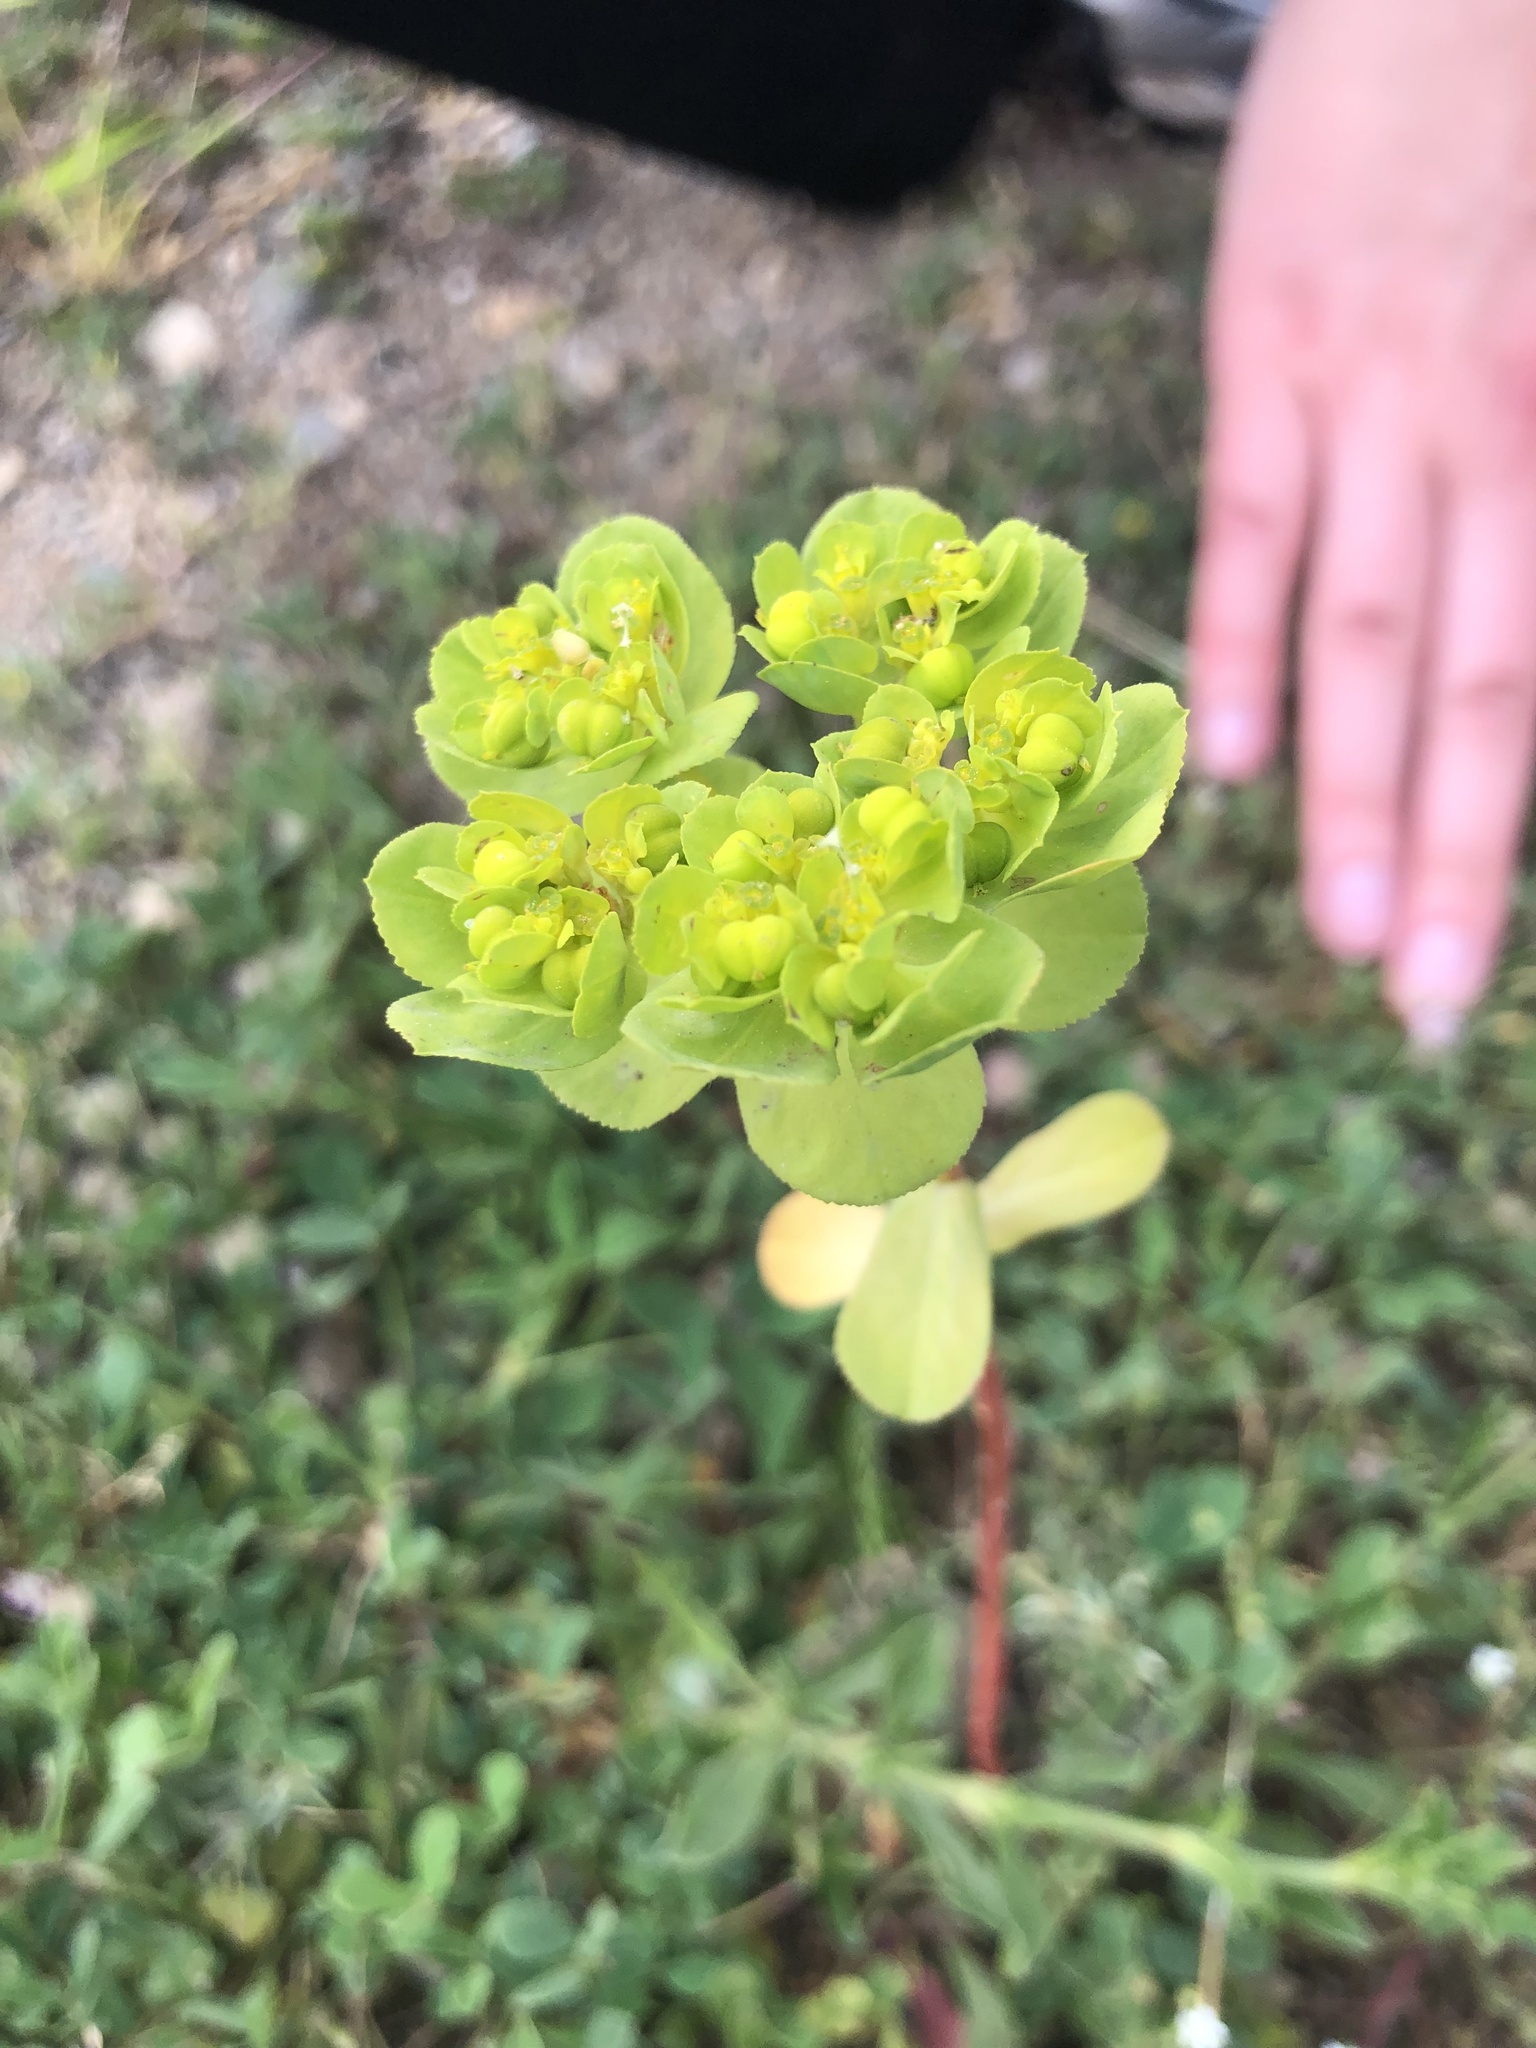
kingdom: Plantae
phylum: Tracheophyta
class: Magnoliopsida
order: Malpighiales
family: Euphorbiaceae
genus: Euphorbia
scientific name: Euphorbia helioscopia
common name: Sun spurge
